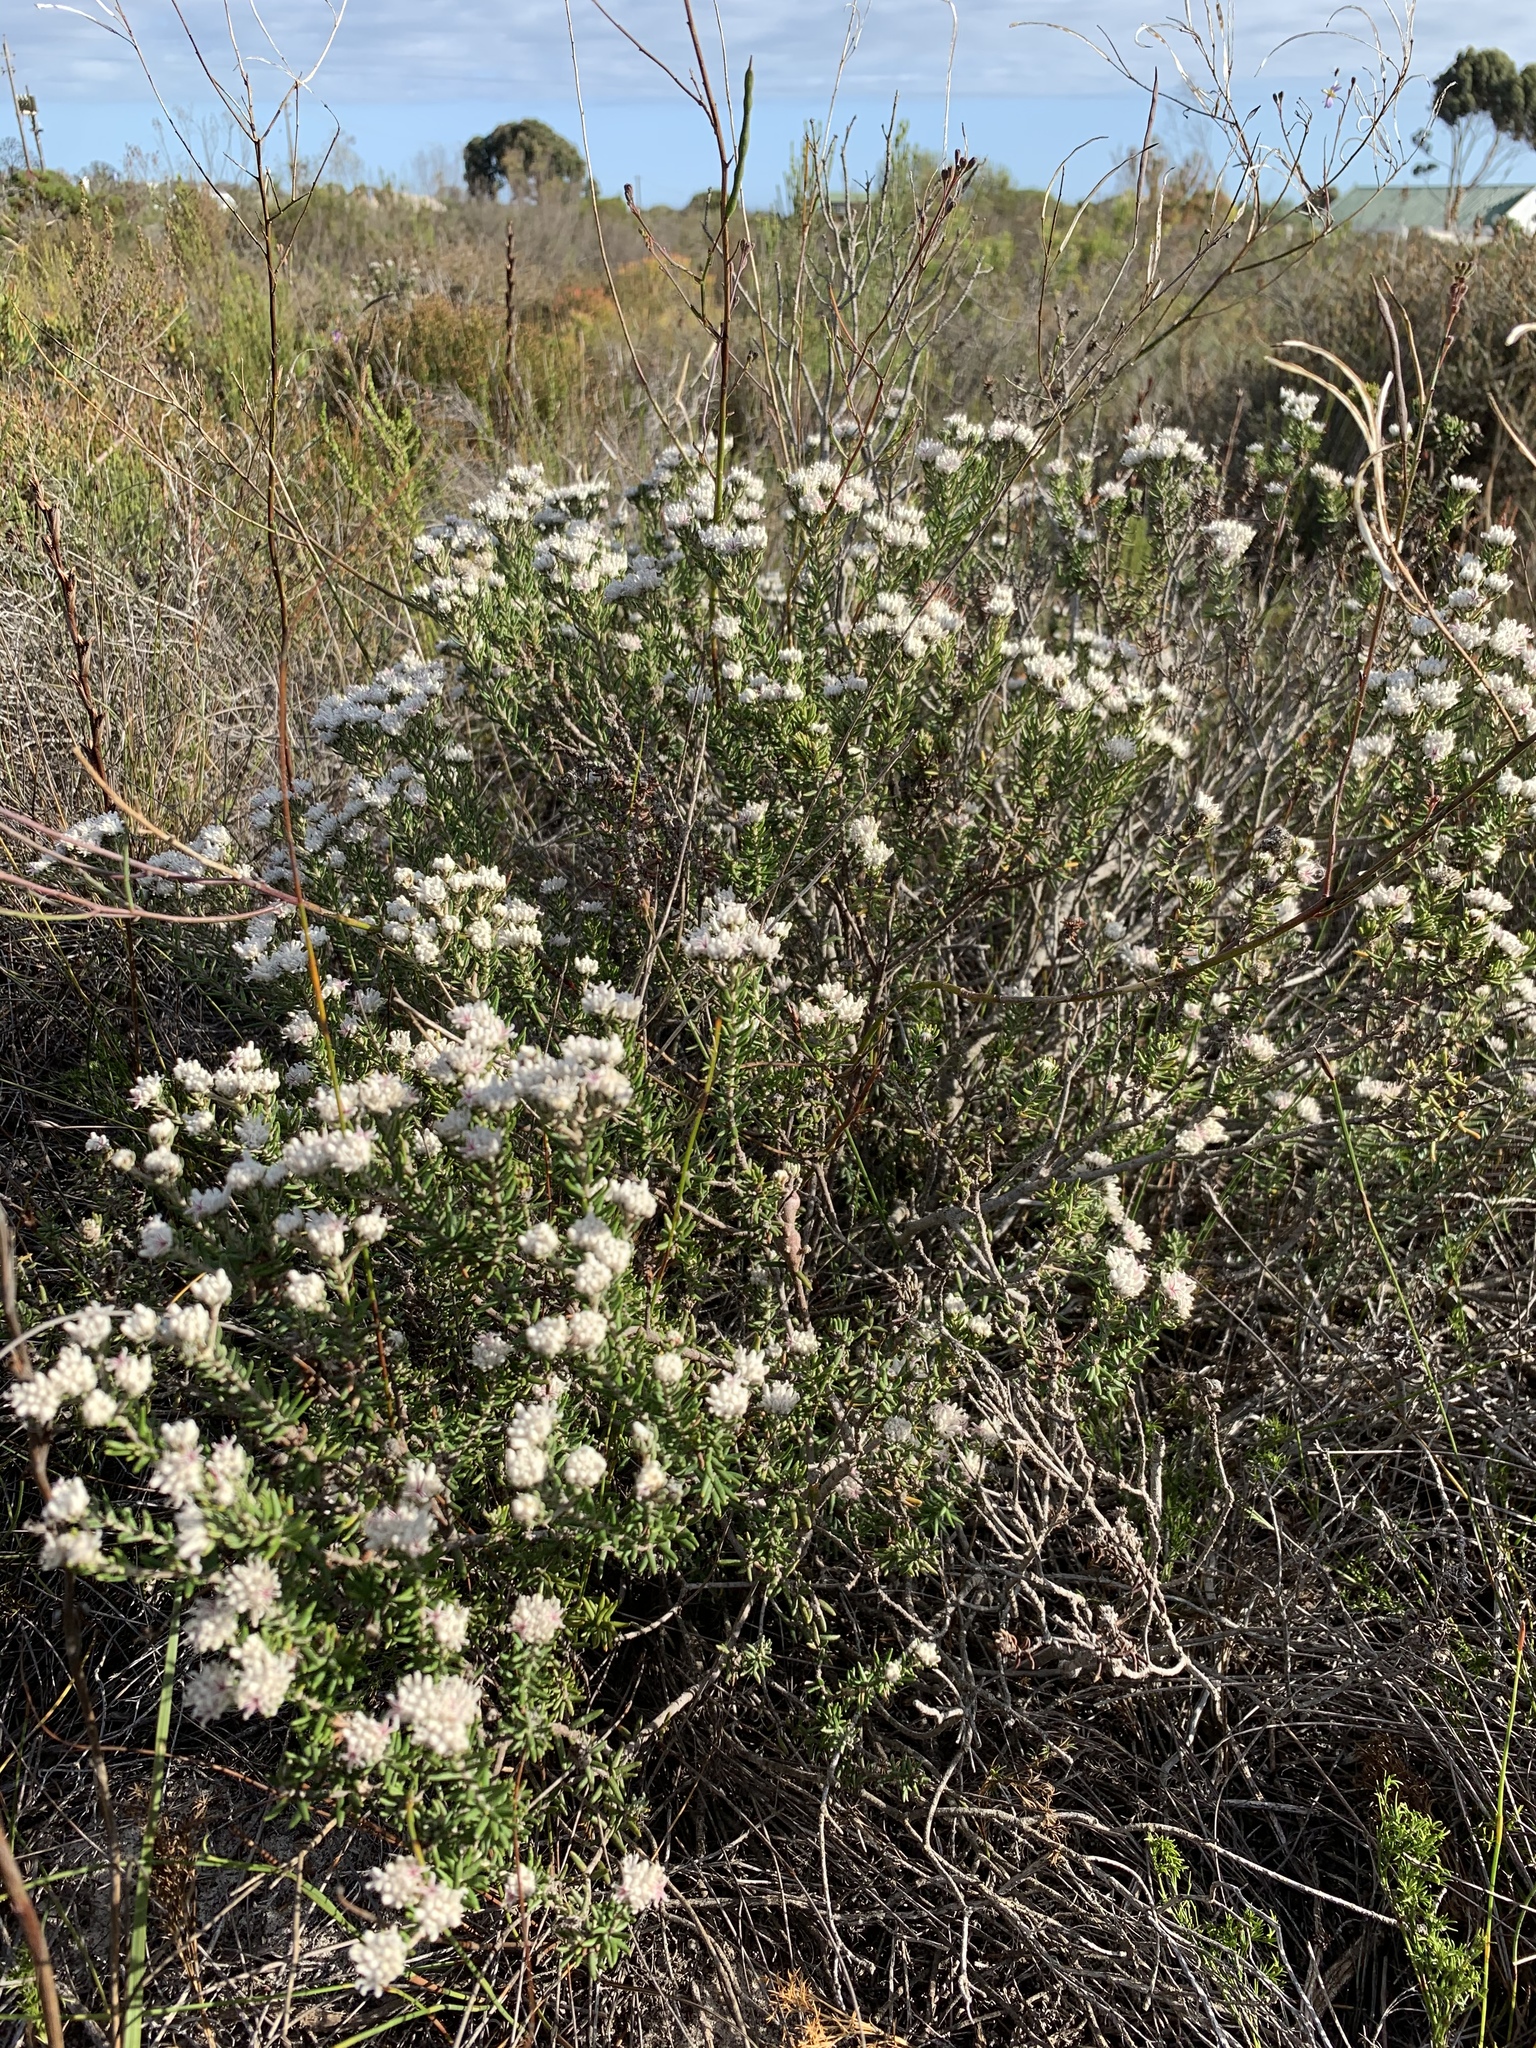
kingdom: Plantae
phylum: Tracheophyta
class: Magnoliopsida
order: Rosales
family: Rhamnaceae
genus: Trichocephalus
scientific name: Trichocephalus stipularis
